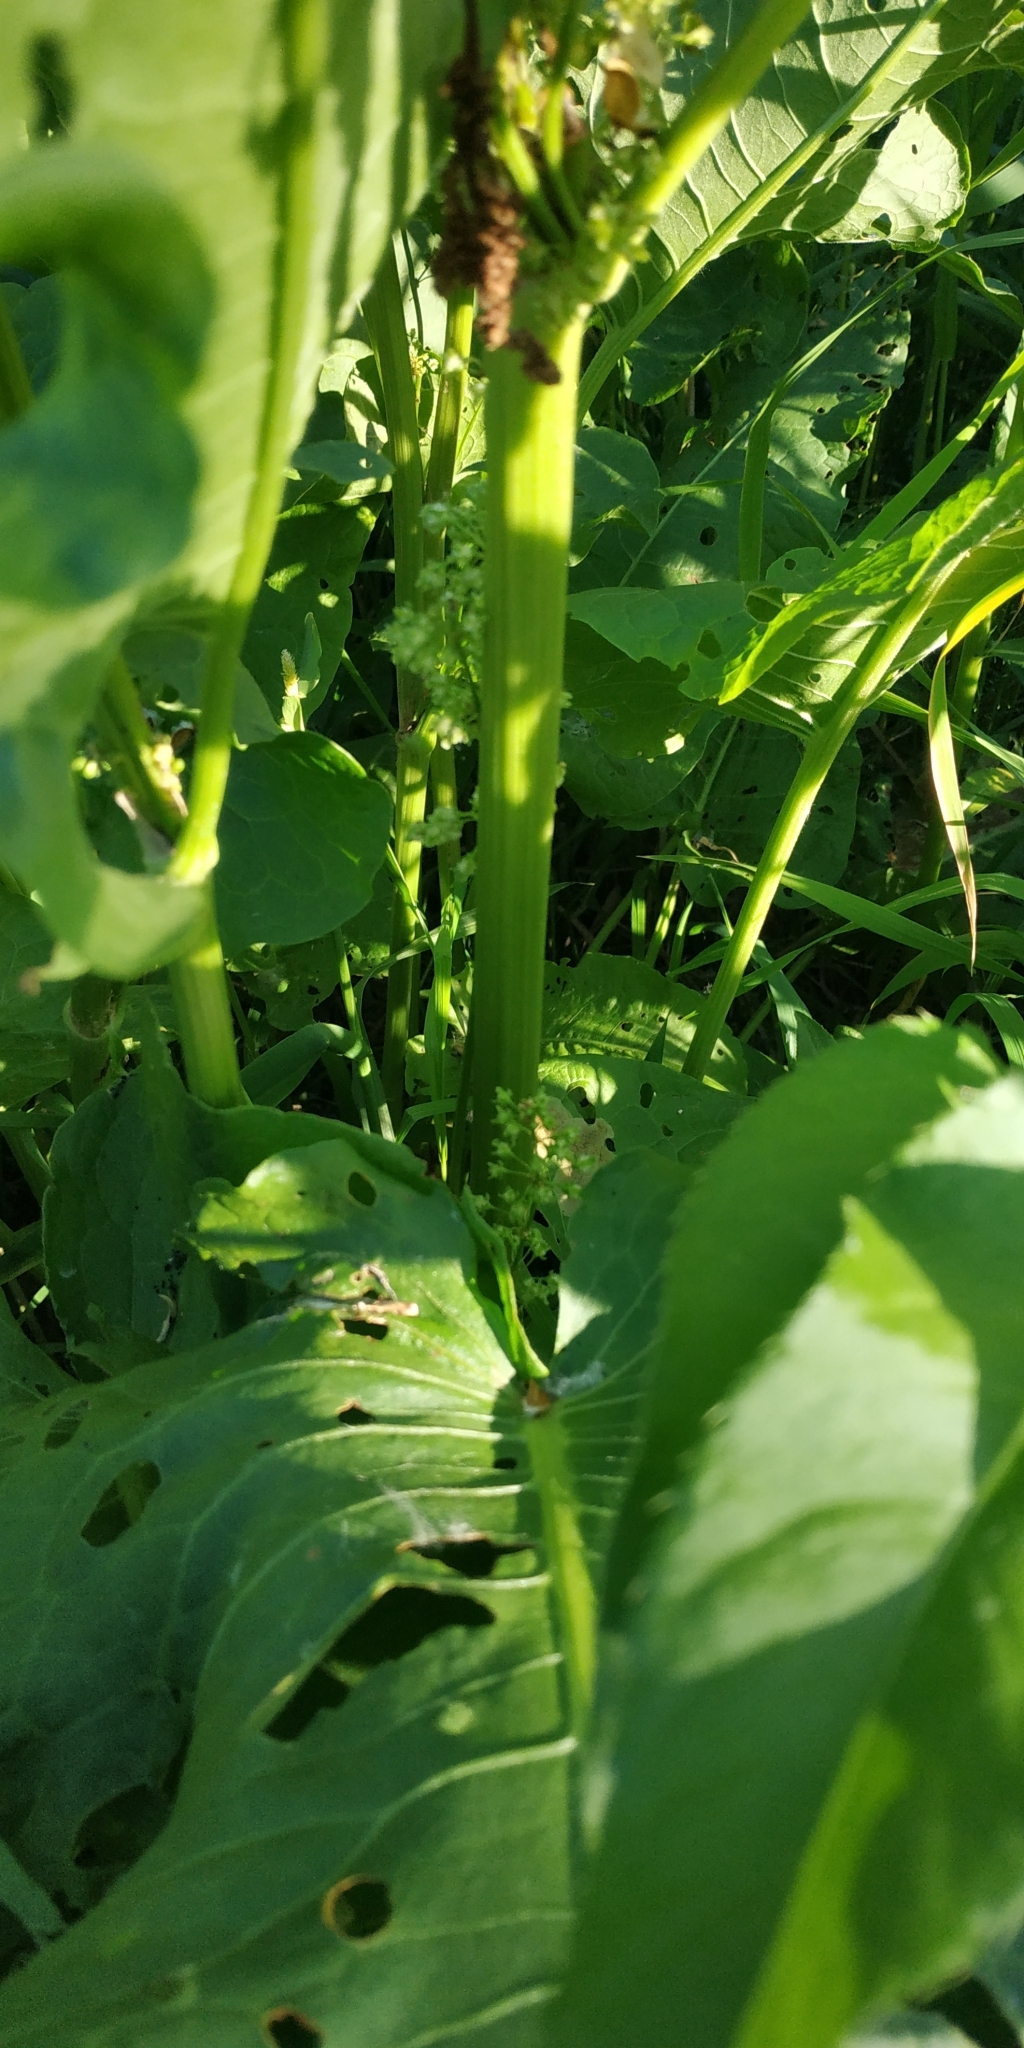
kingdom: Plantae
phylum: Tracheophyta
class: Magnoliopsida
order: Caryophyllales
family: Polygonaceae
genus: Rumex
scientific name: Rumex confertus
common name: Russian dock
